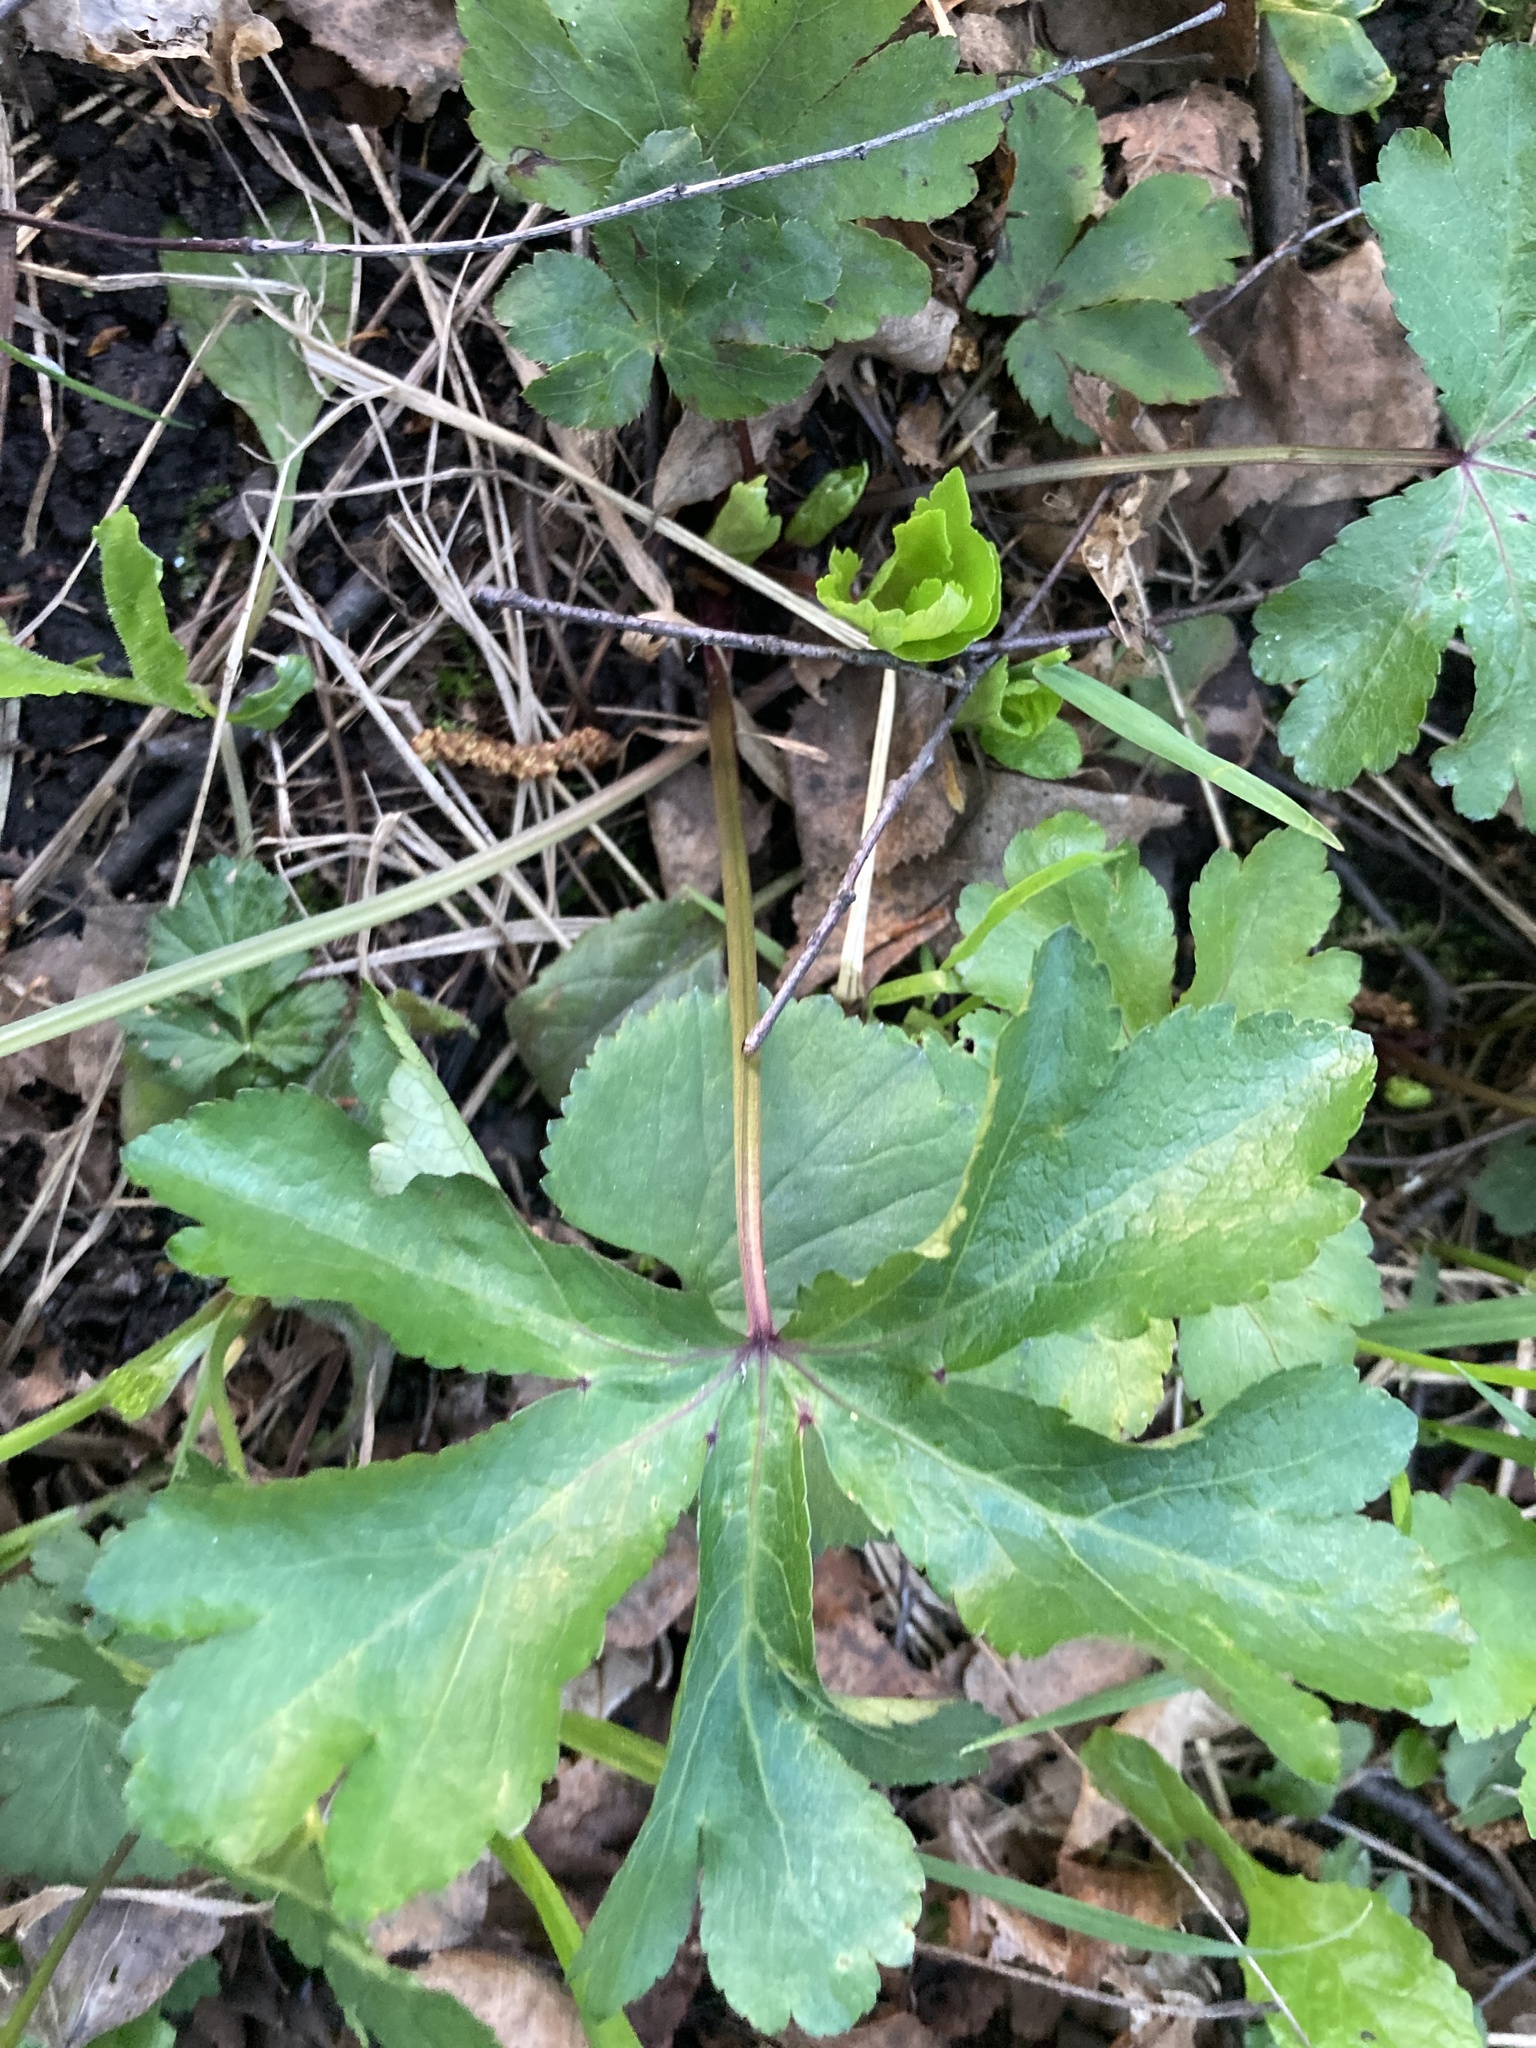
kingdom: Plantae
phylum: Tracheophyta
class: Magnoliopsida
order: Apiales
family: Apiaceae
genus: Sanicula
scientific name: Sanicula europaea
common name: Sanicle
